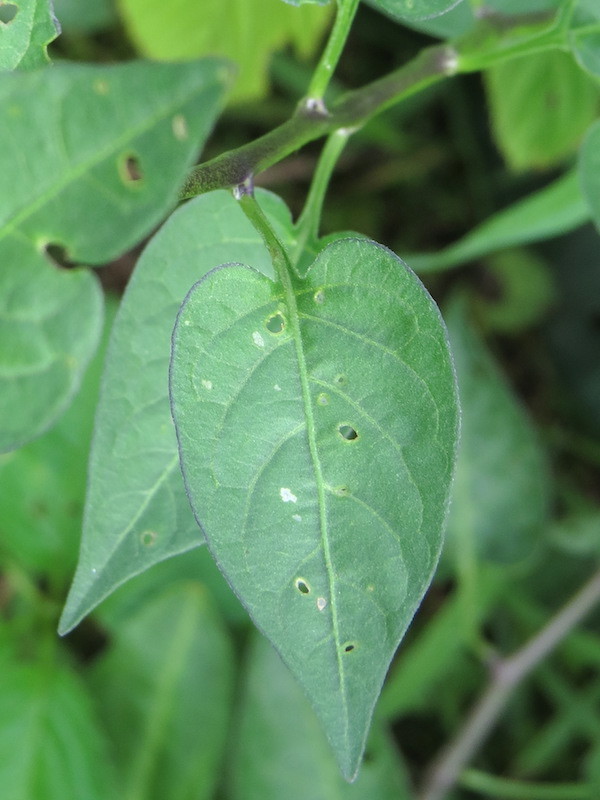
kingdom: Plantae
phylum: Tracheophyta
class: Magnoliopsida
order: Solanales
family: Solanaceae
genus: Solanum
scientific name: Solanum dulcamara
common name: Climbing nightshade
